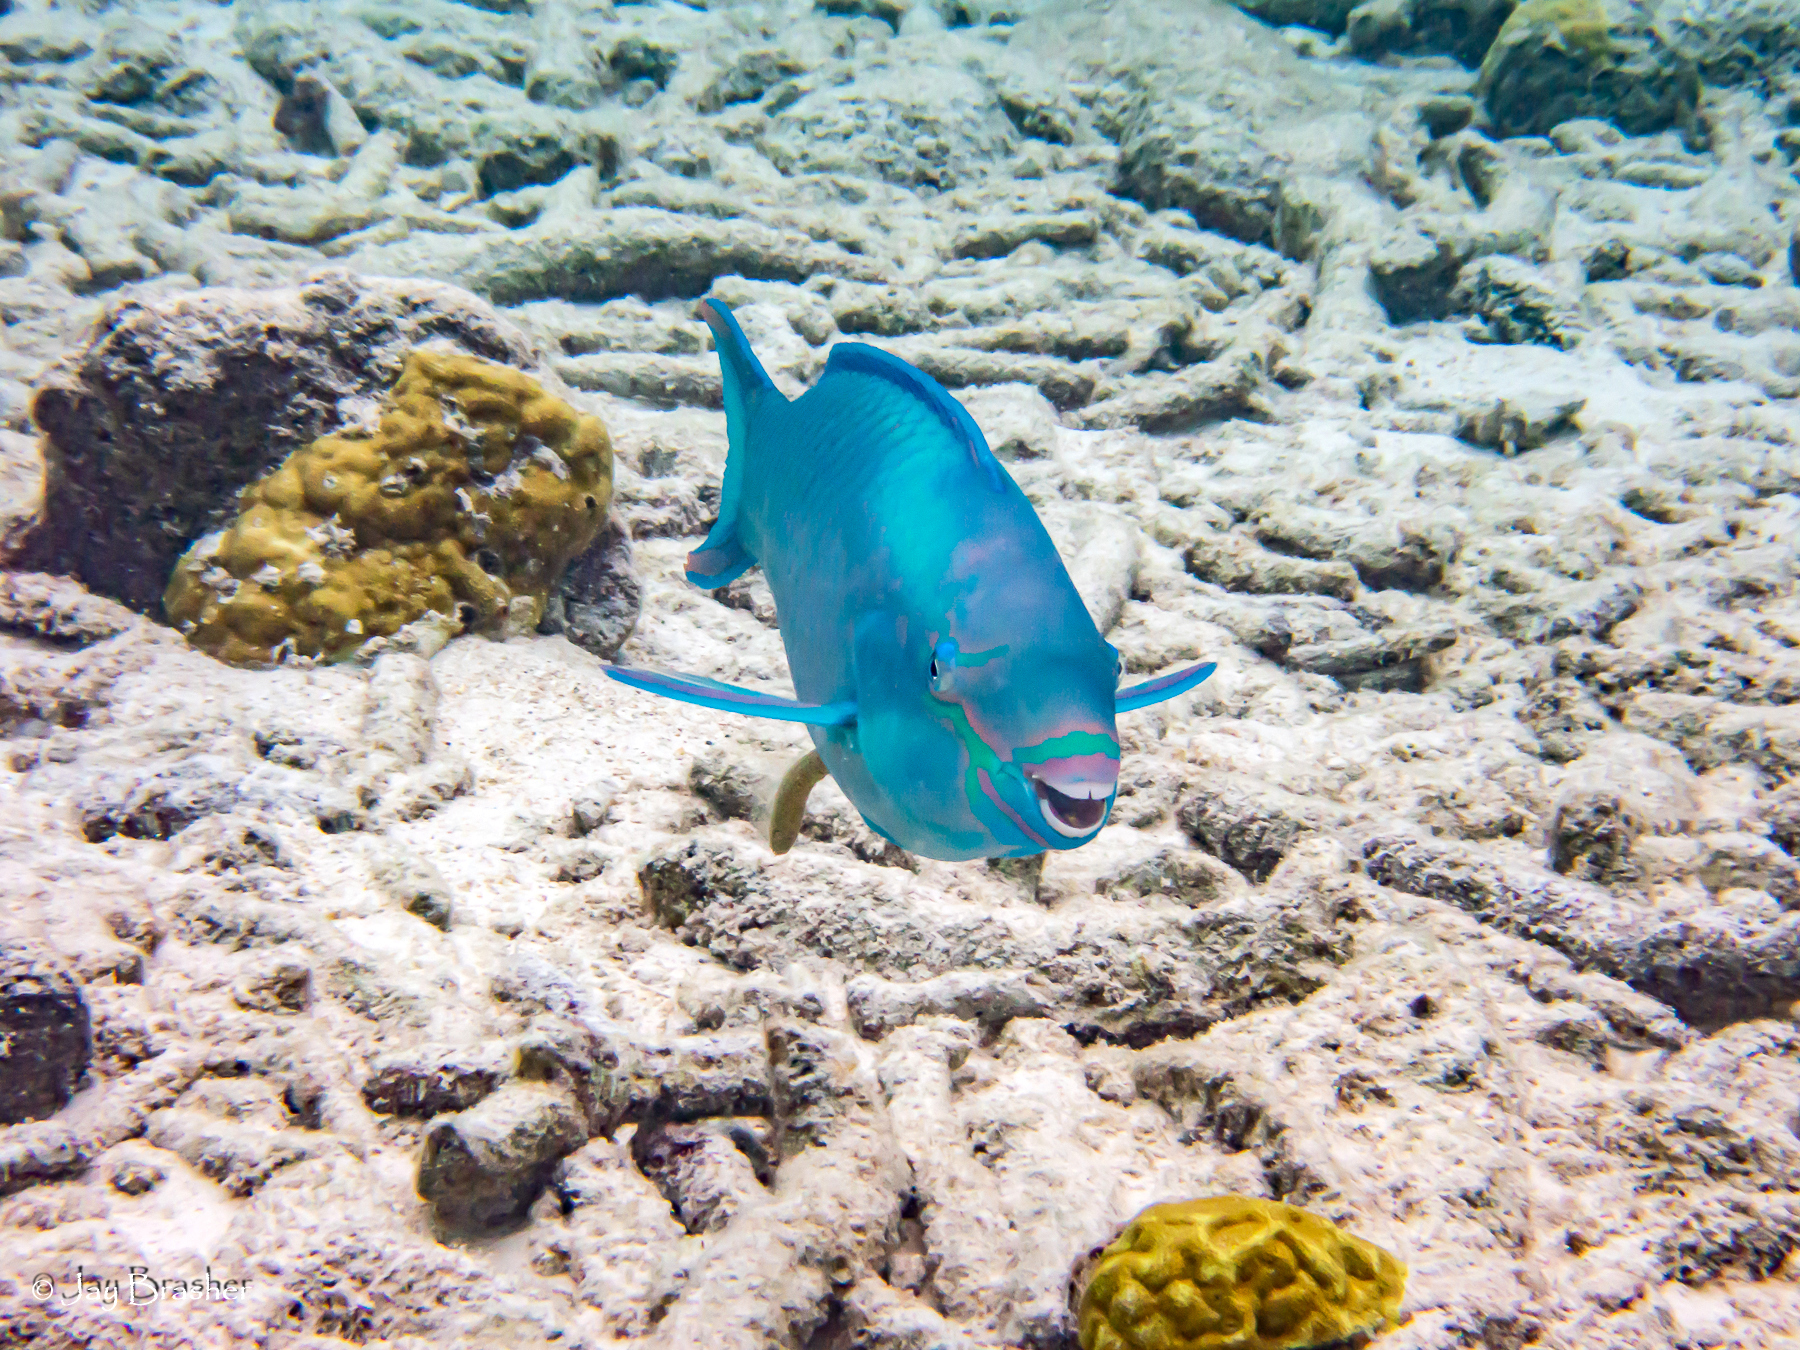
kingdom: Animalia
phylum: Chordata
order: Perciformes
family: Scaridae
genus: Scarus
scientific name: Scarus vetula
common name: Queen parrotfish
